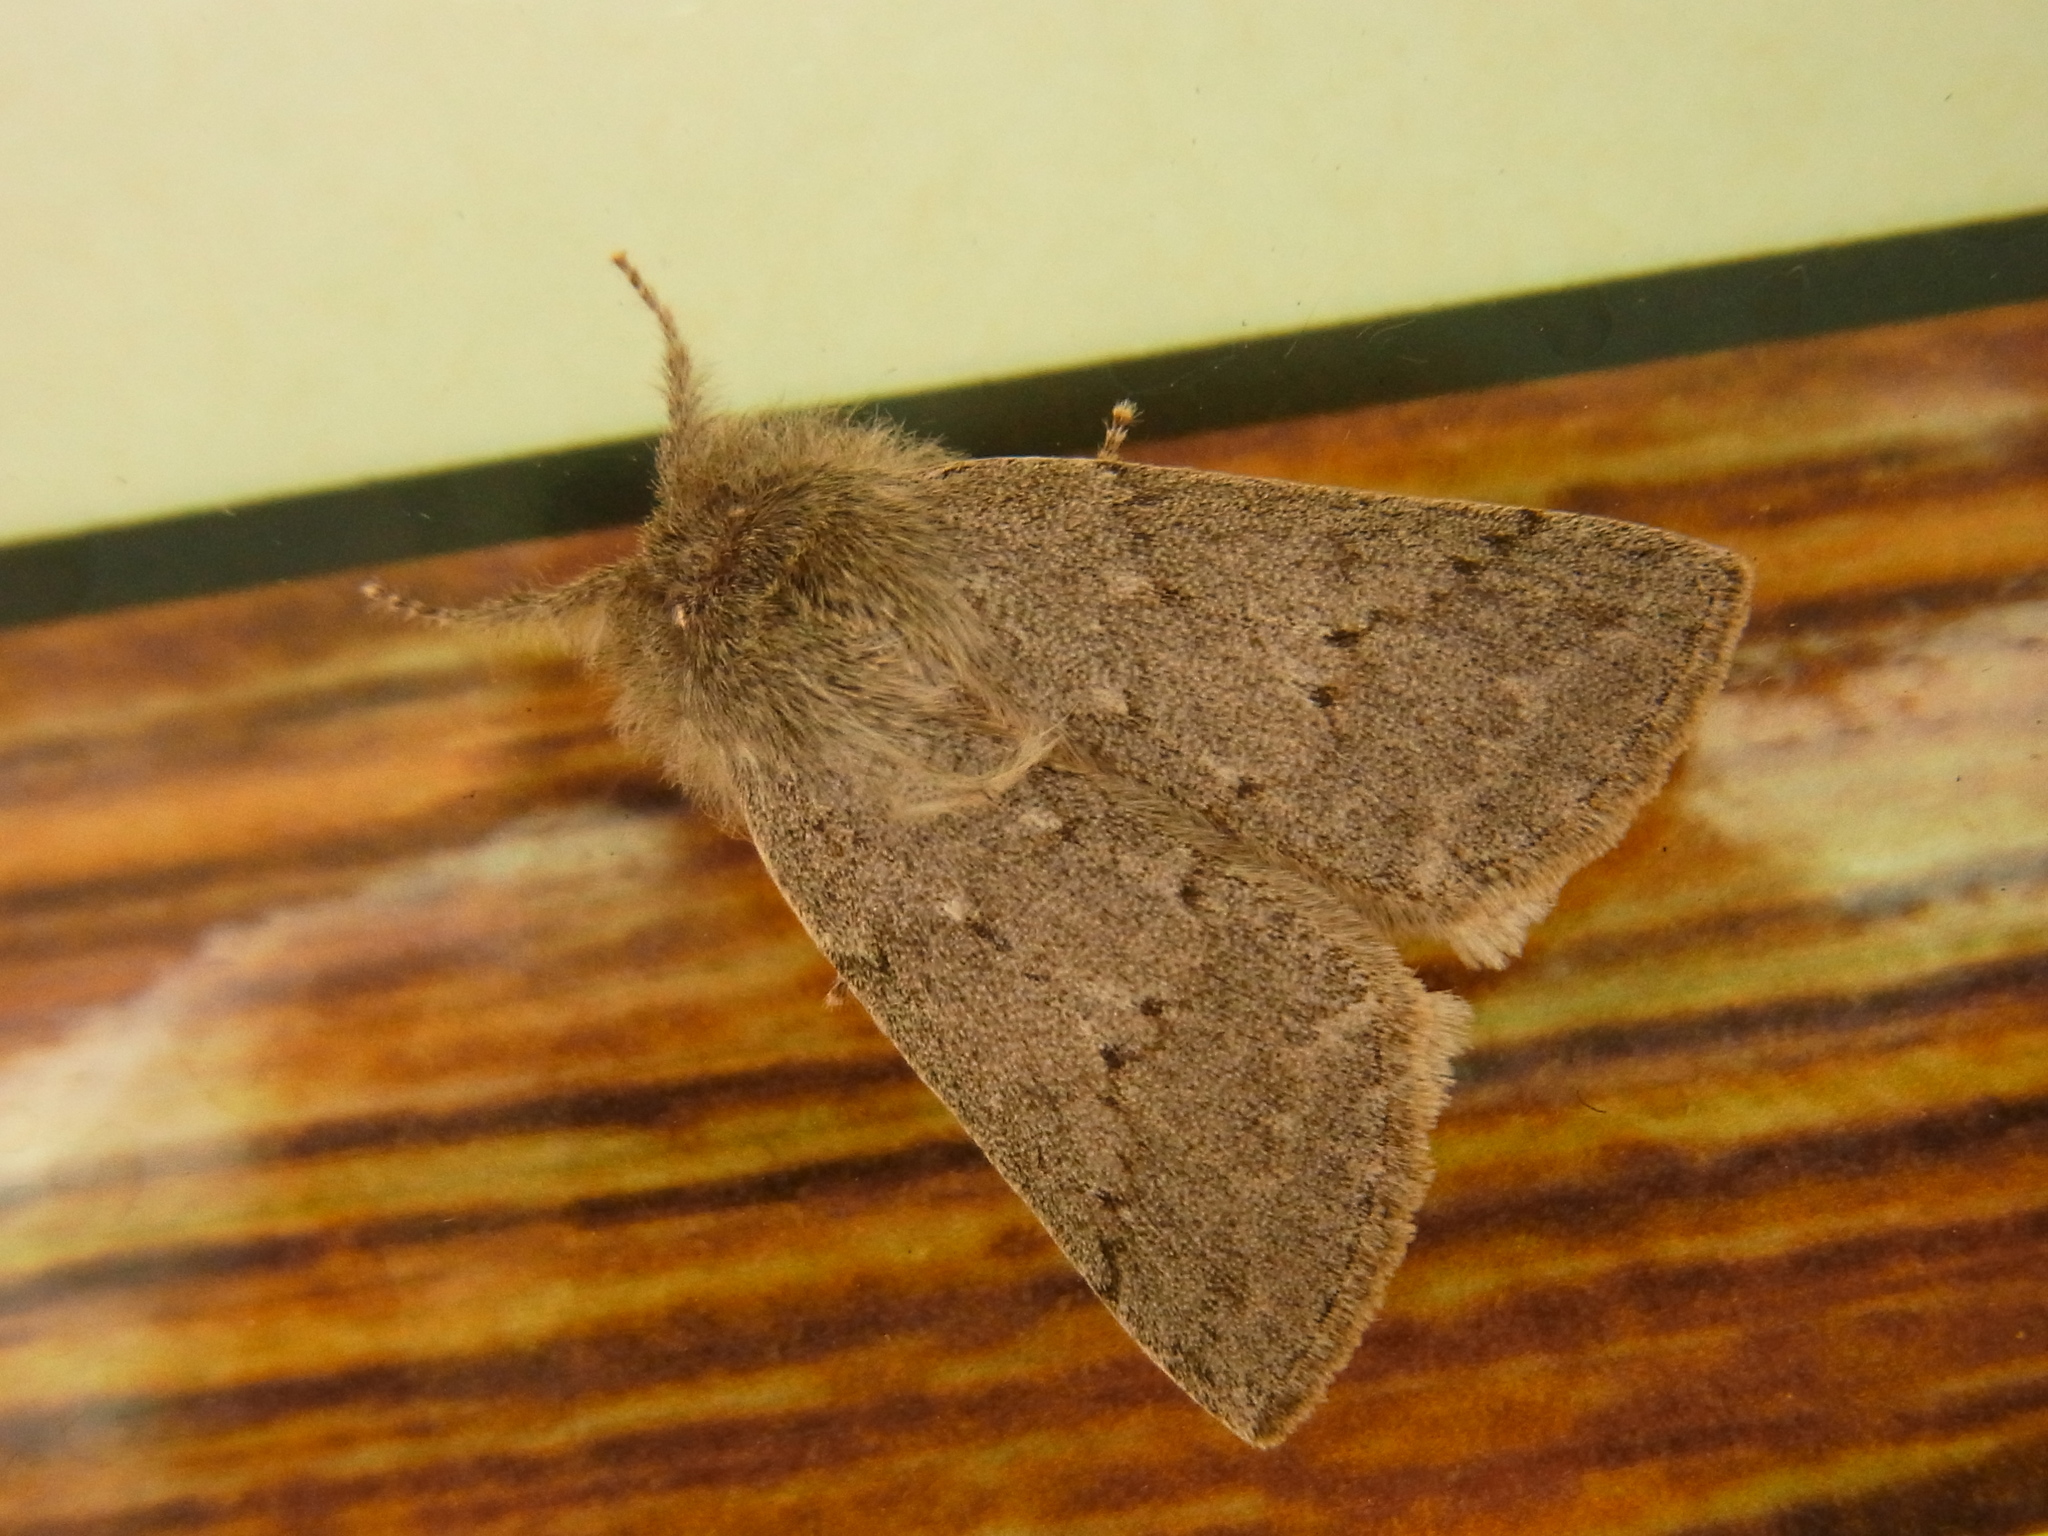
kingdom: Animalia
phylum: Arthropoda
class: Insecta
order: Lepidoptera
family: Geometridae
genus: Planociampa
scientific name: Planociampa antipala
